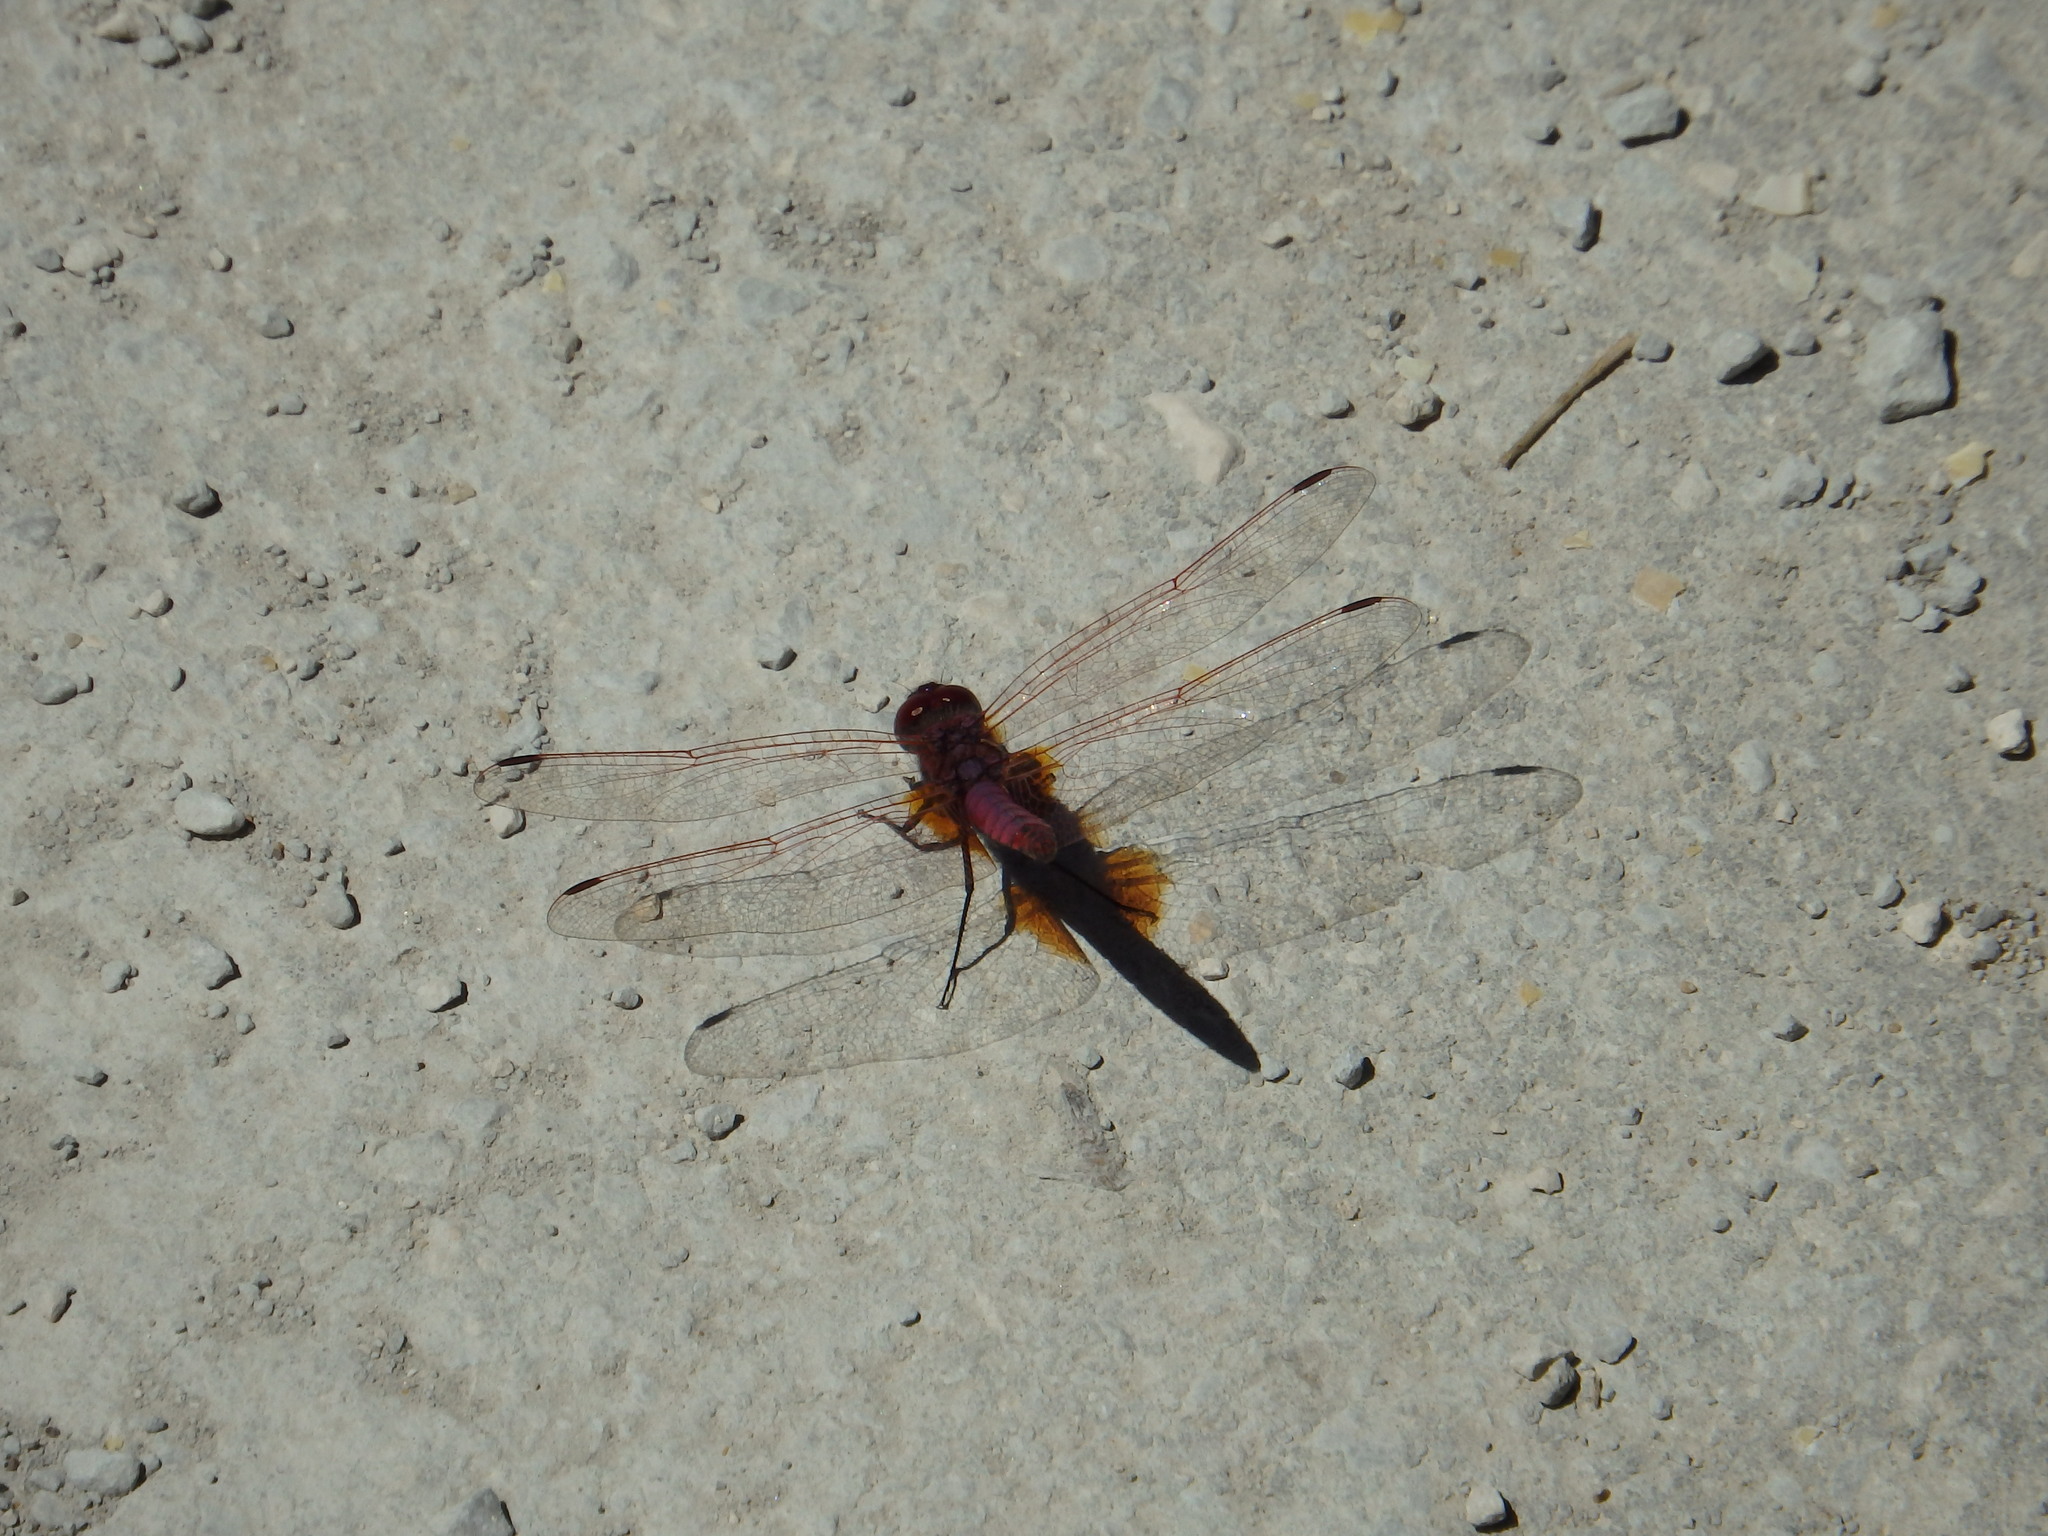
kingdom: Animalia
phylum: Arthropoda
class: Insecta
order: Odonata
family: Libellulidae
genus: Trithemis
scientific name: Trithemis annulata
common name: Violet dropwing
